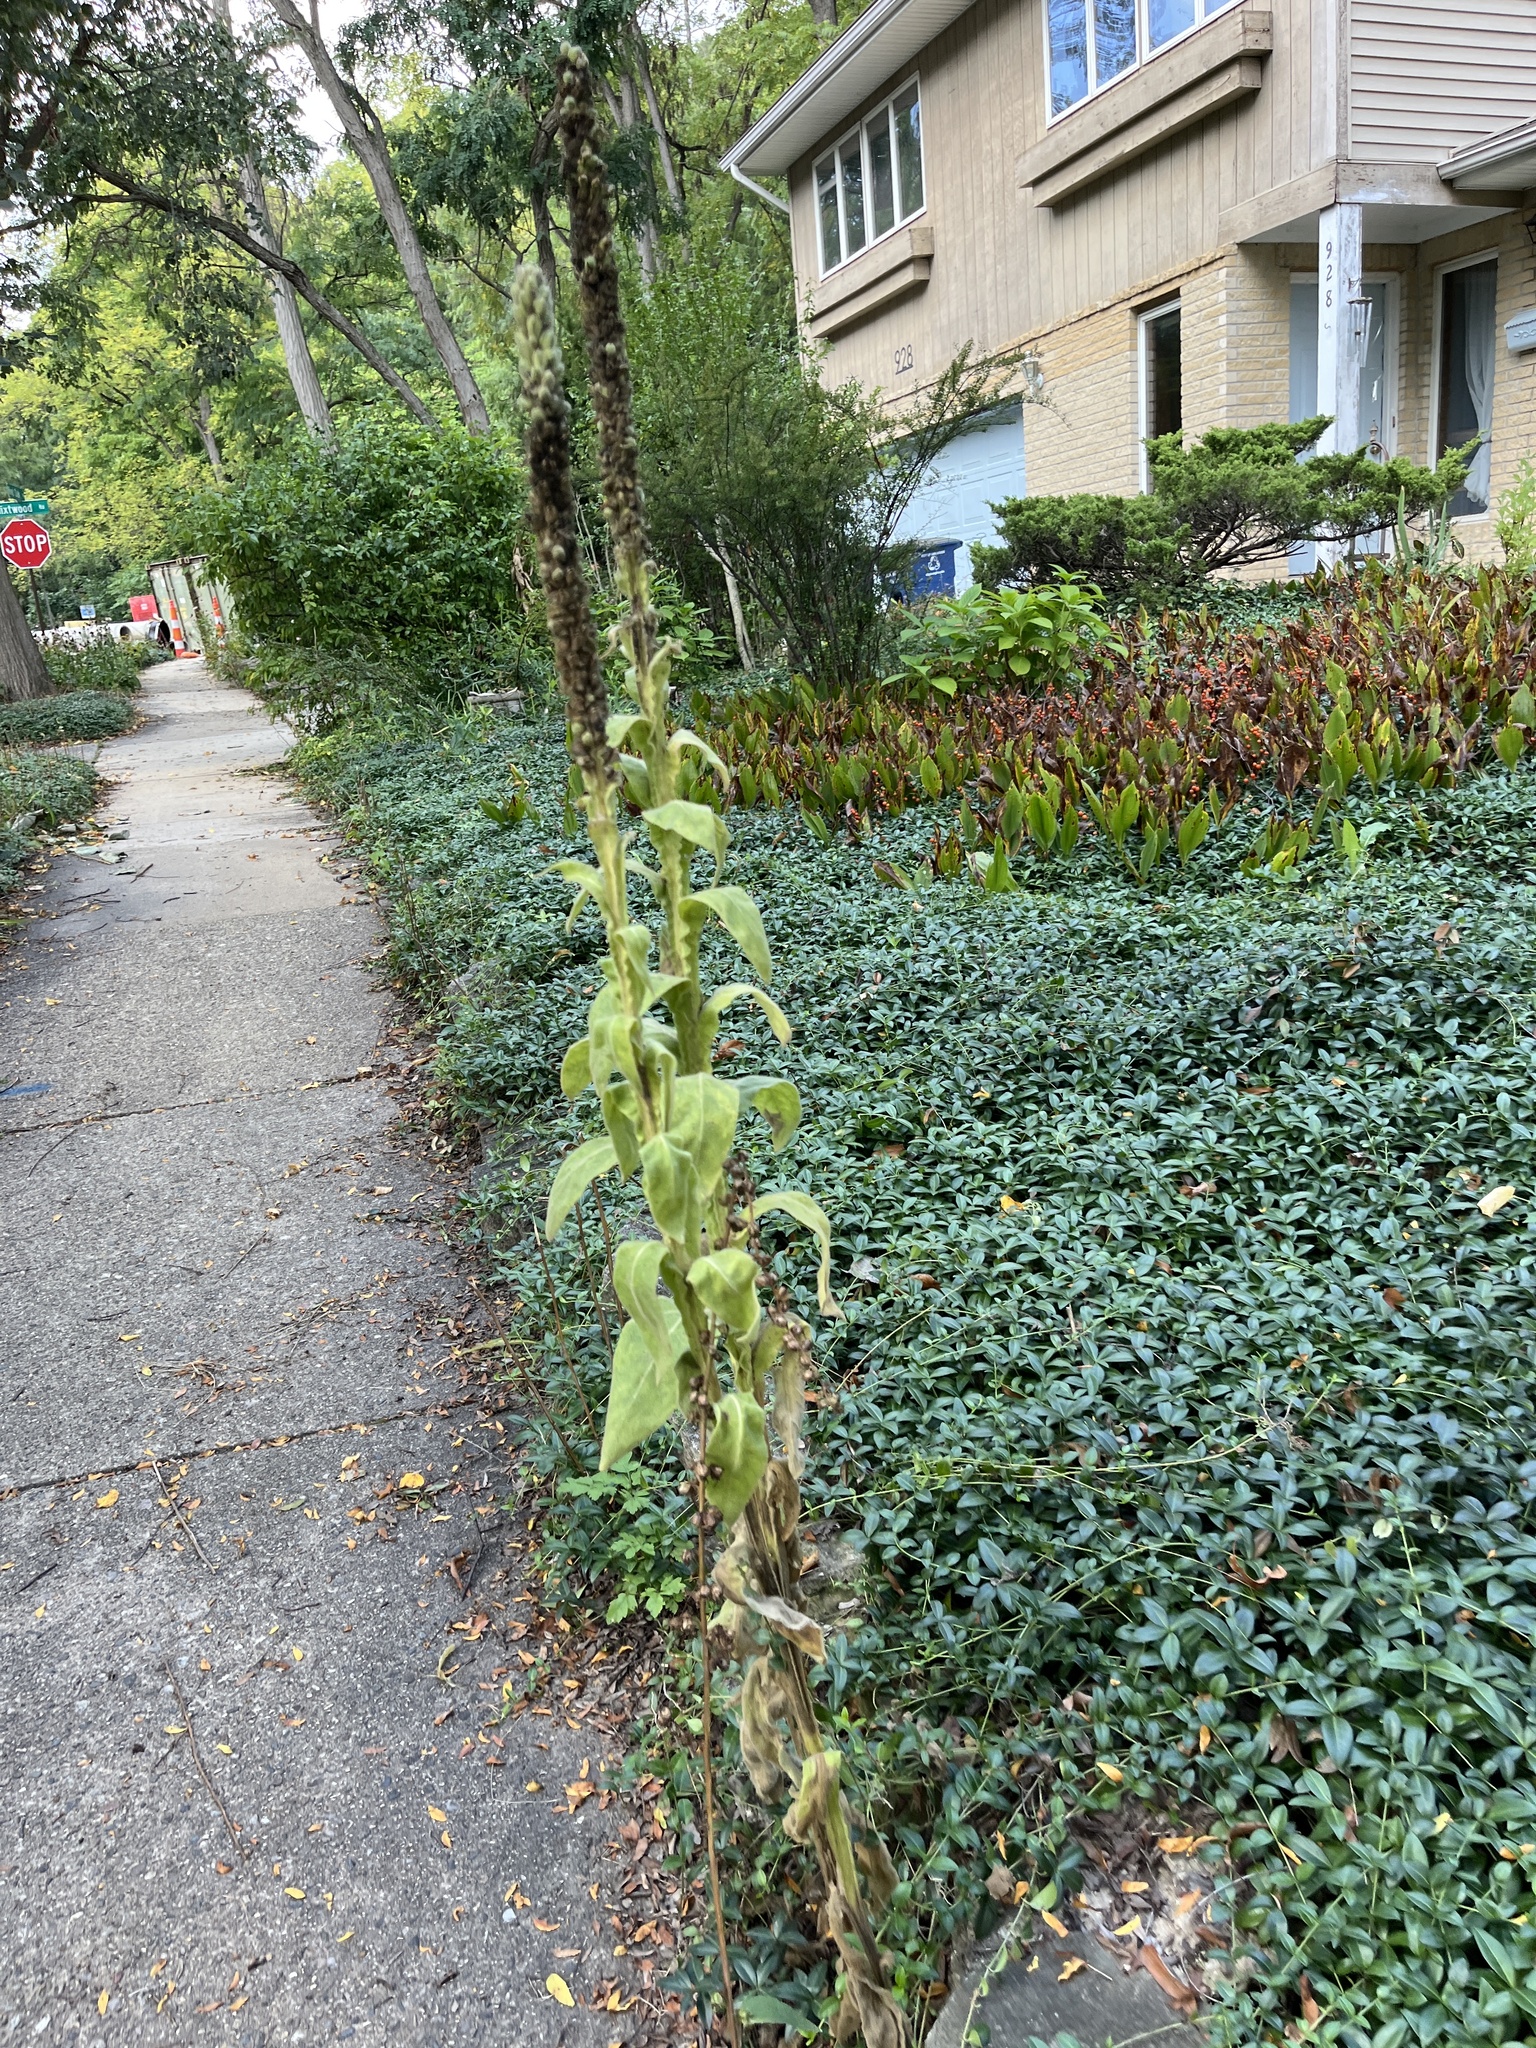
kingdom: Plantae
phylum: Tracheophyta
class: Magnoliopsida
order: Lamiales
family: Scrophulariaceae
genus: Verbascum
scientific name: Verbascum thapsus
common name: Common mullein
